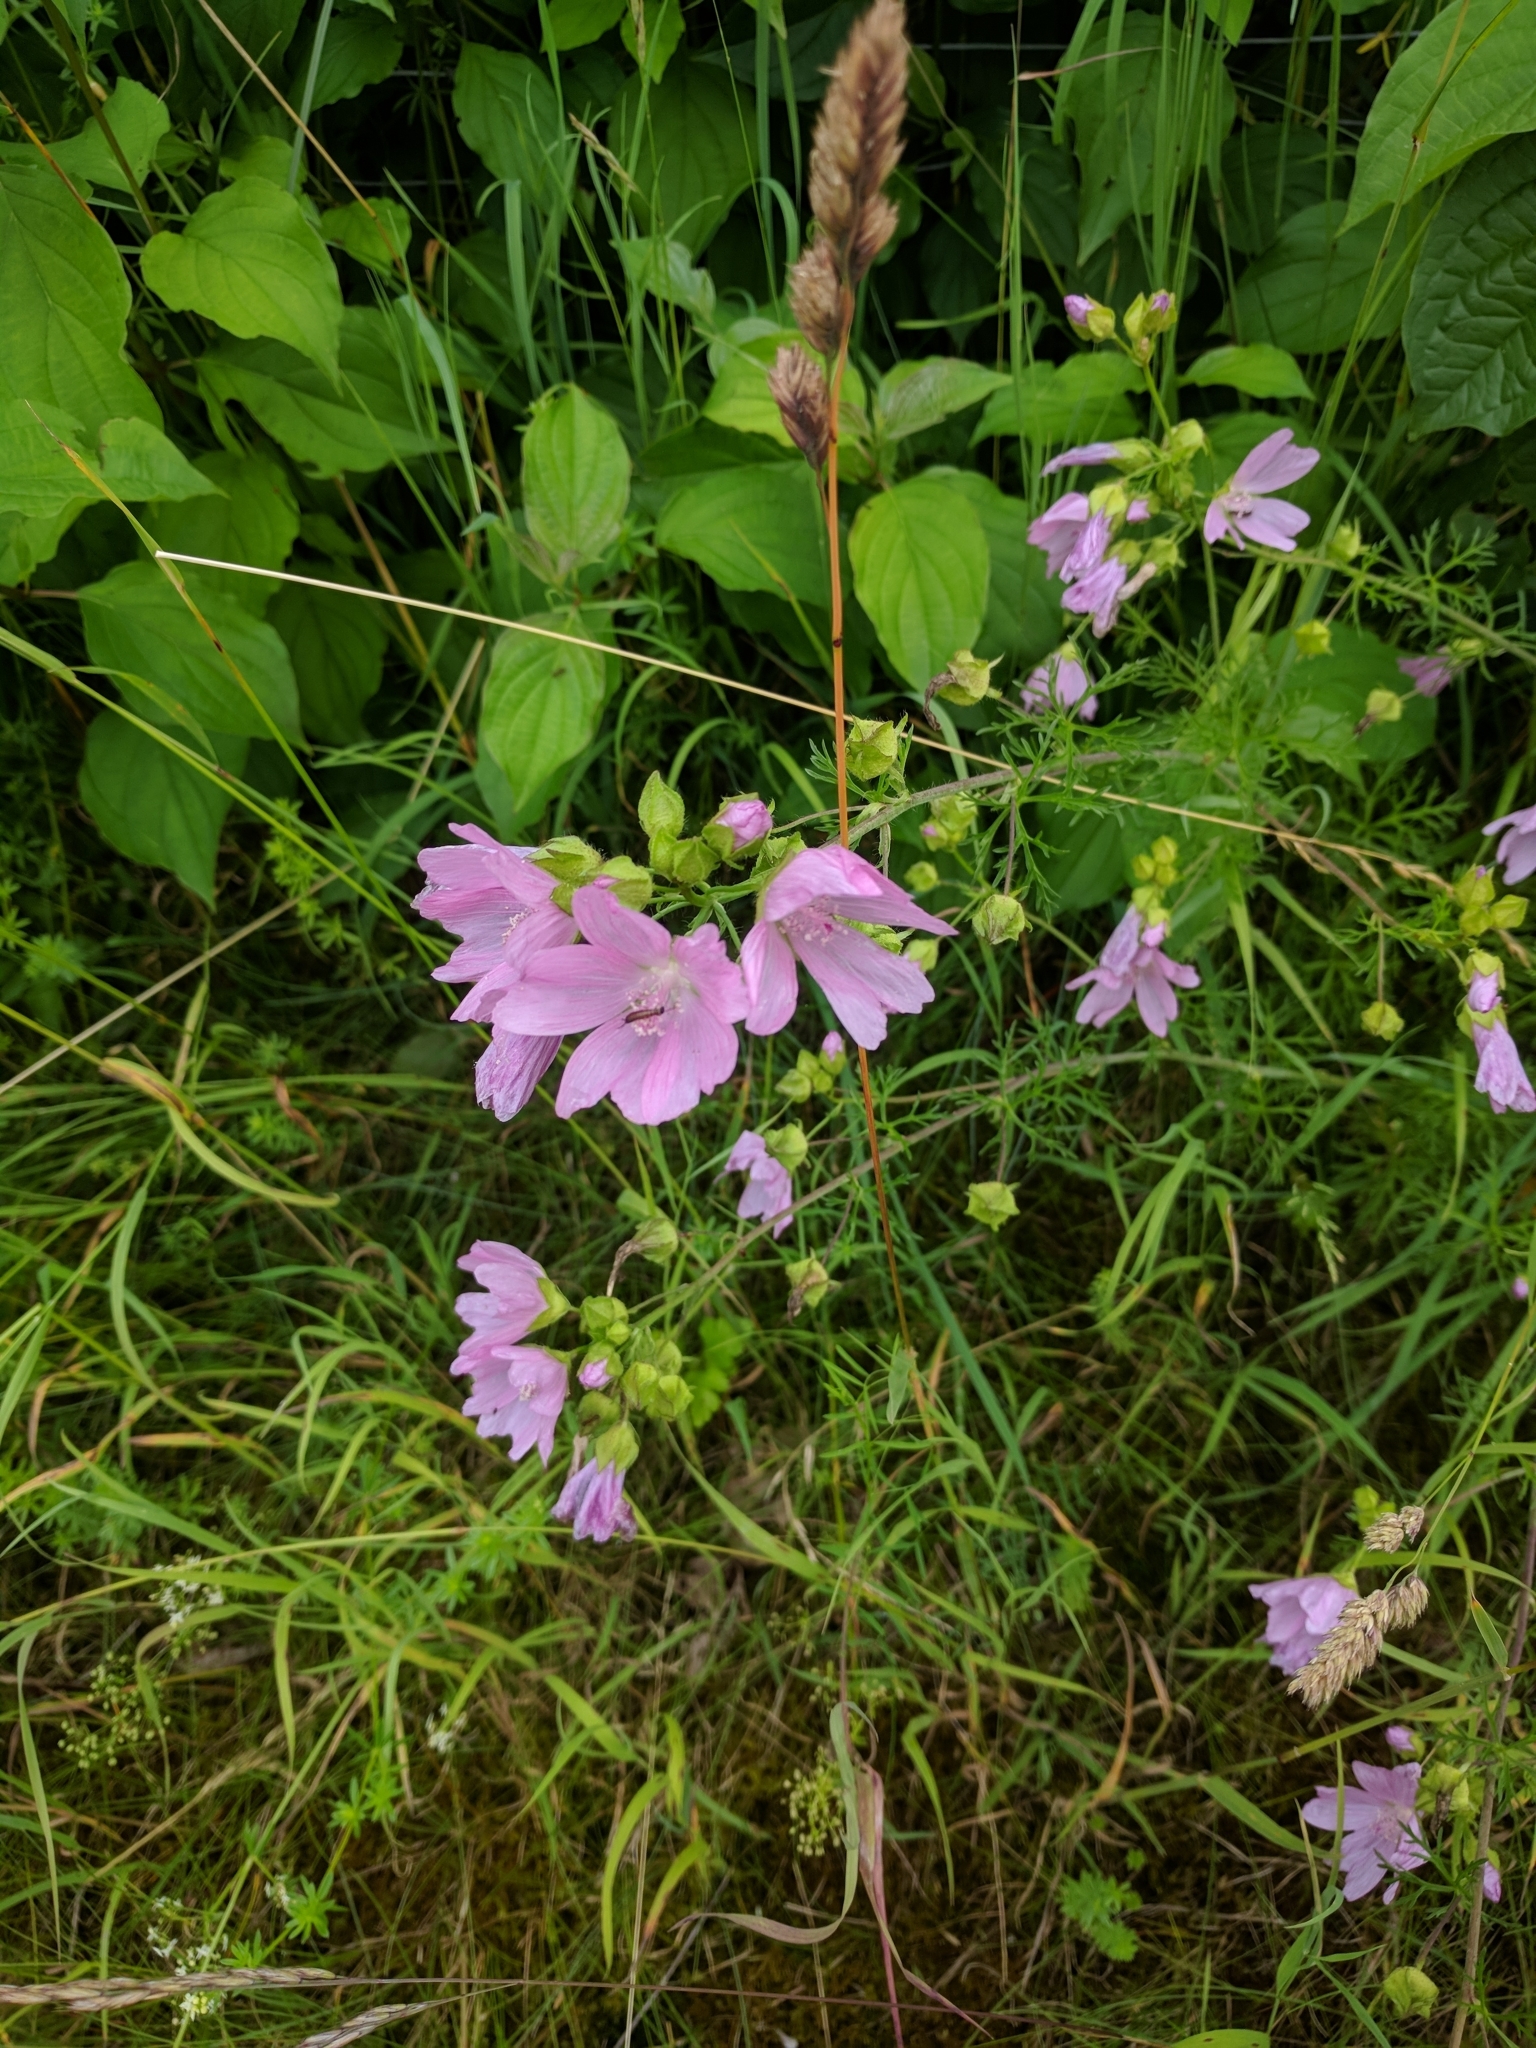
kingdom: Plantae
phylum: Tracheophyta
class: Magnoliopsida
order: Malvales
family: Malvaceae
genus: Malva
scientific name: Malva moschata
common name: Musk mallow
